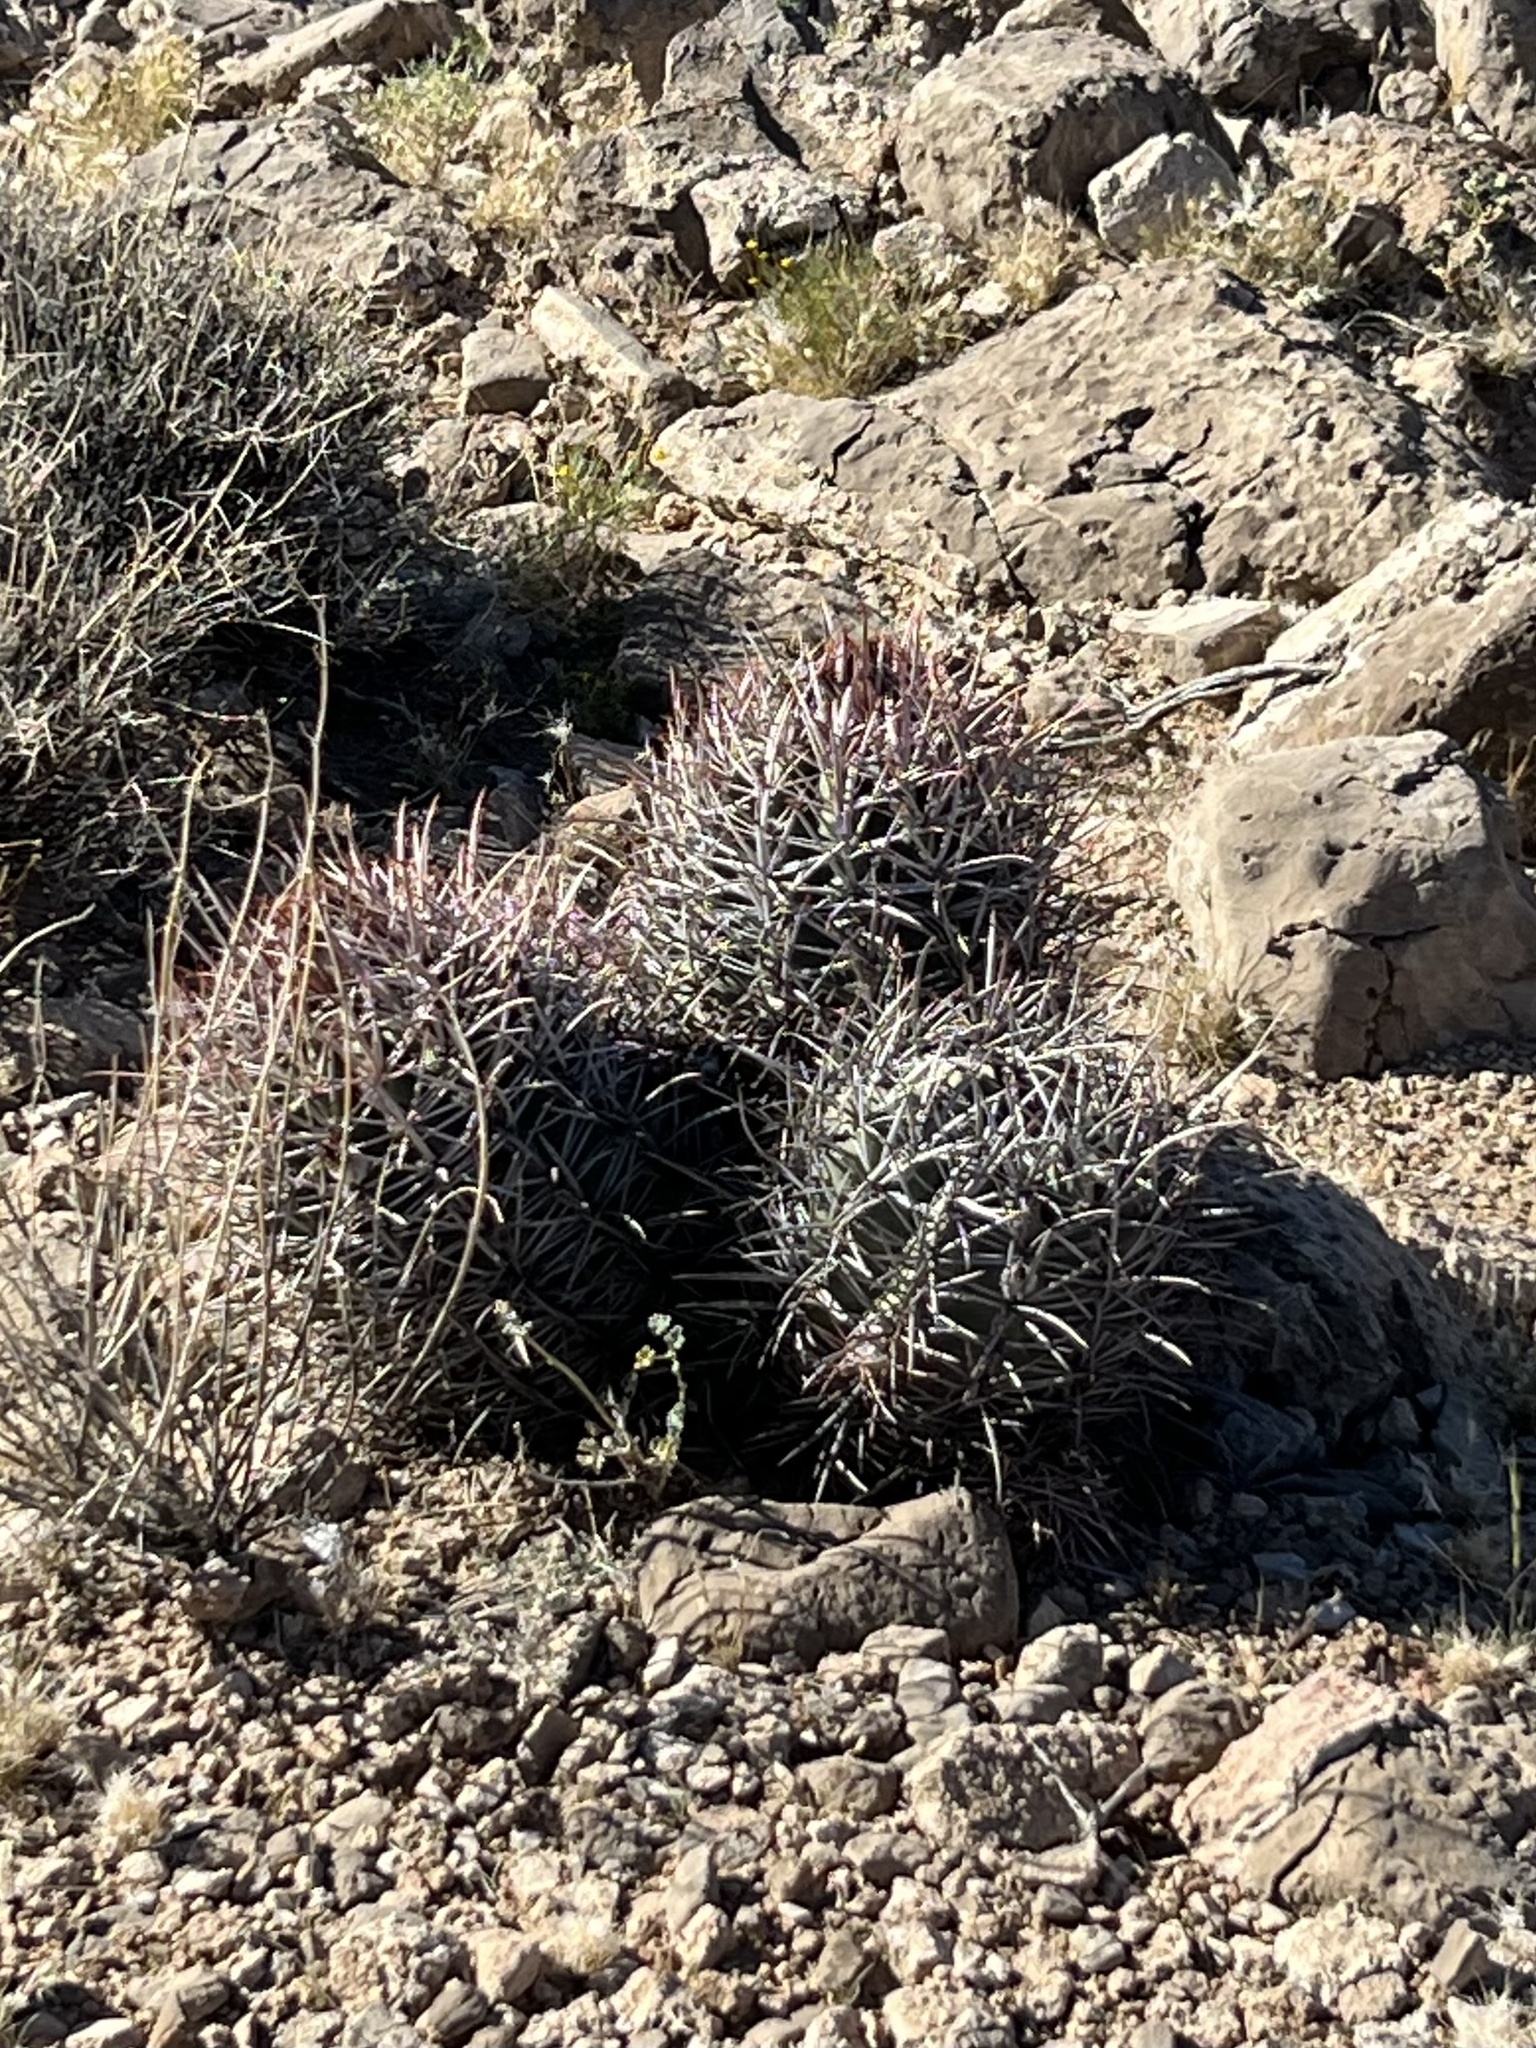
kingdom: Plantae
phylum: Tracheophyta
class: Magnoliopsida
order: Caryophyllales
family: Cactaceae
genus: Echinocactus
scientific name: Echinocactus polycephalus
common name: Cottontop cactus
